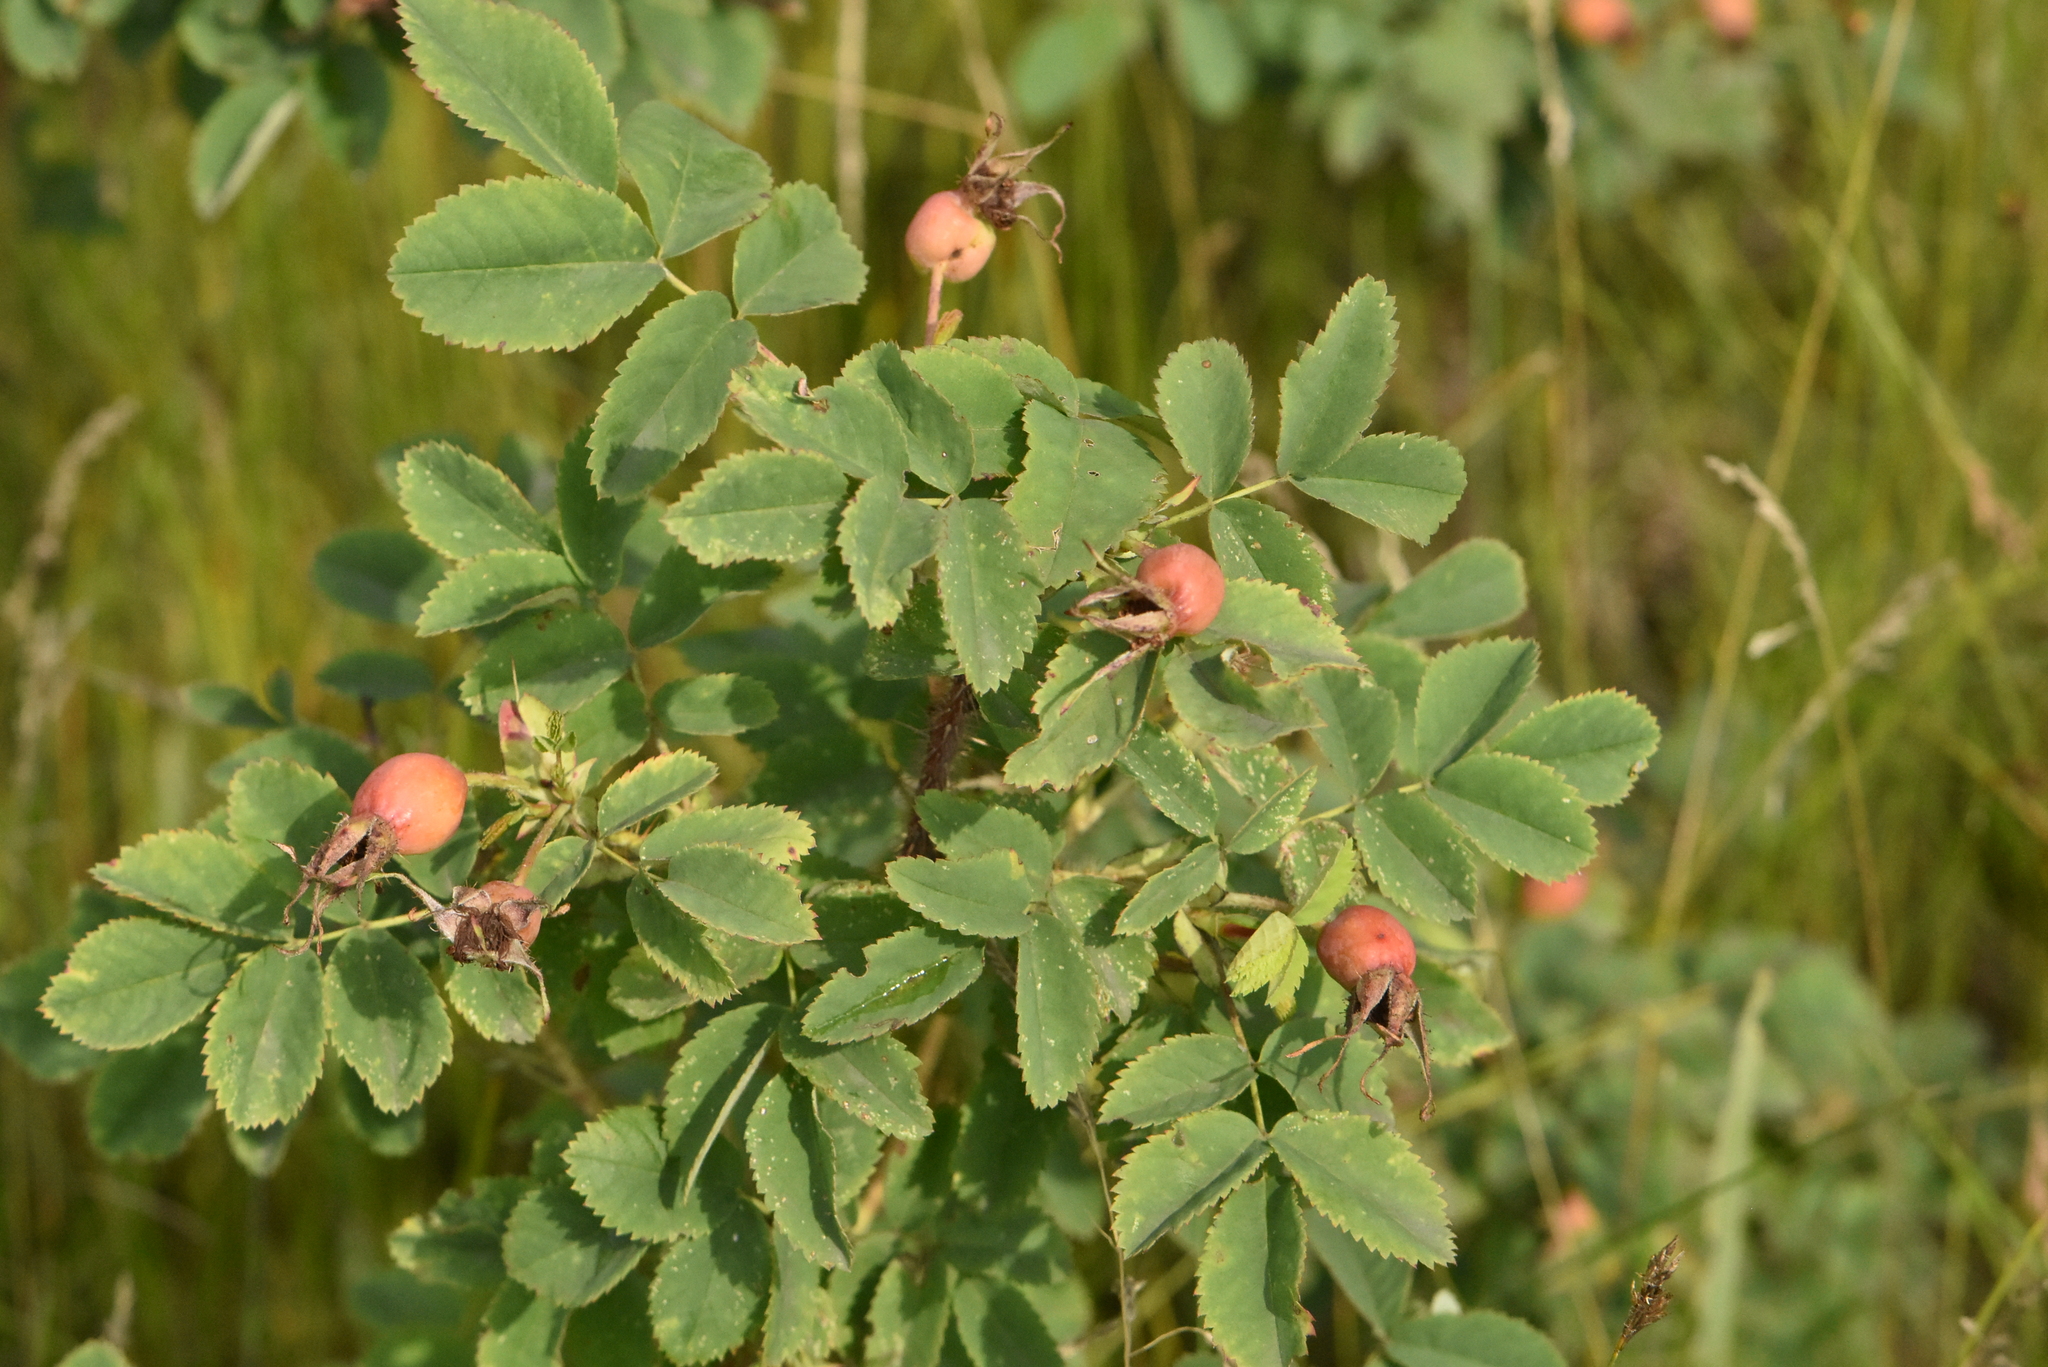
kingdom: Plantae
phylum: Tracheophyta
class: Magnoliopsida
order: Rosales
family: Rosaceae
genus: Rosa
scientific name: Rosa acicularis
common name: Prickly rose
